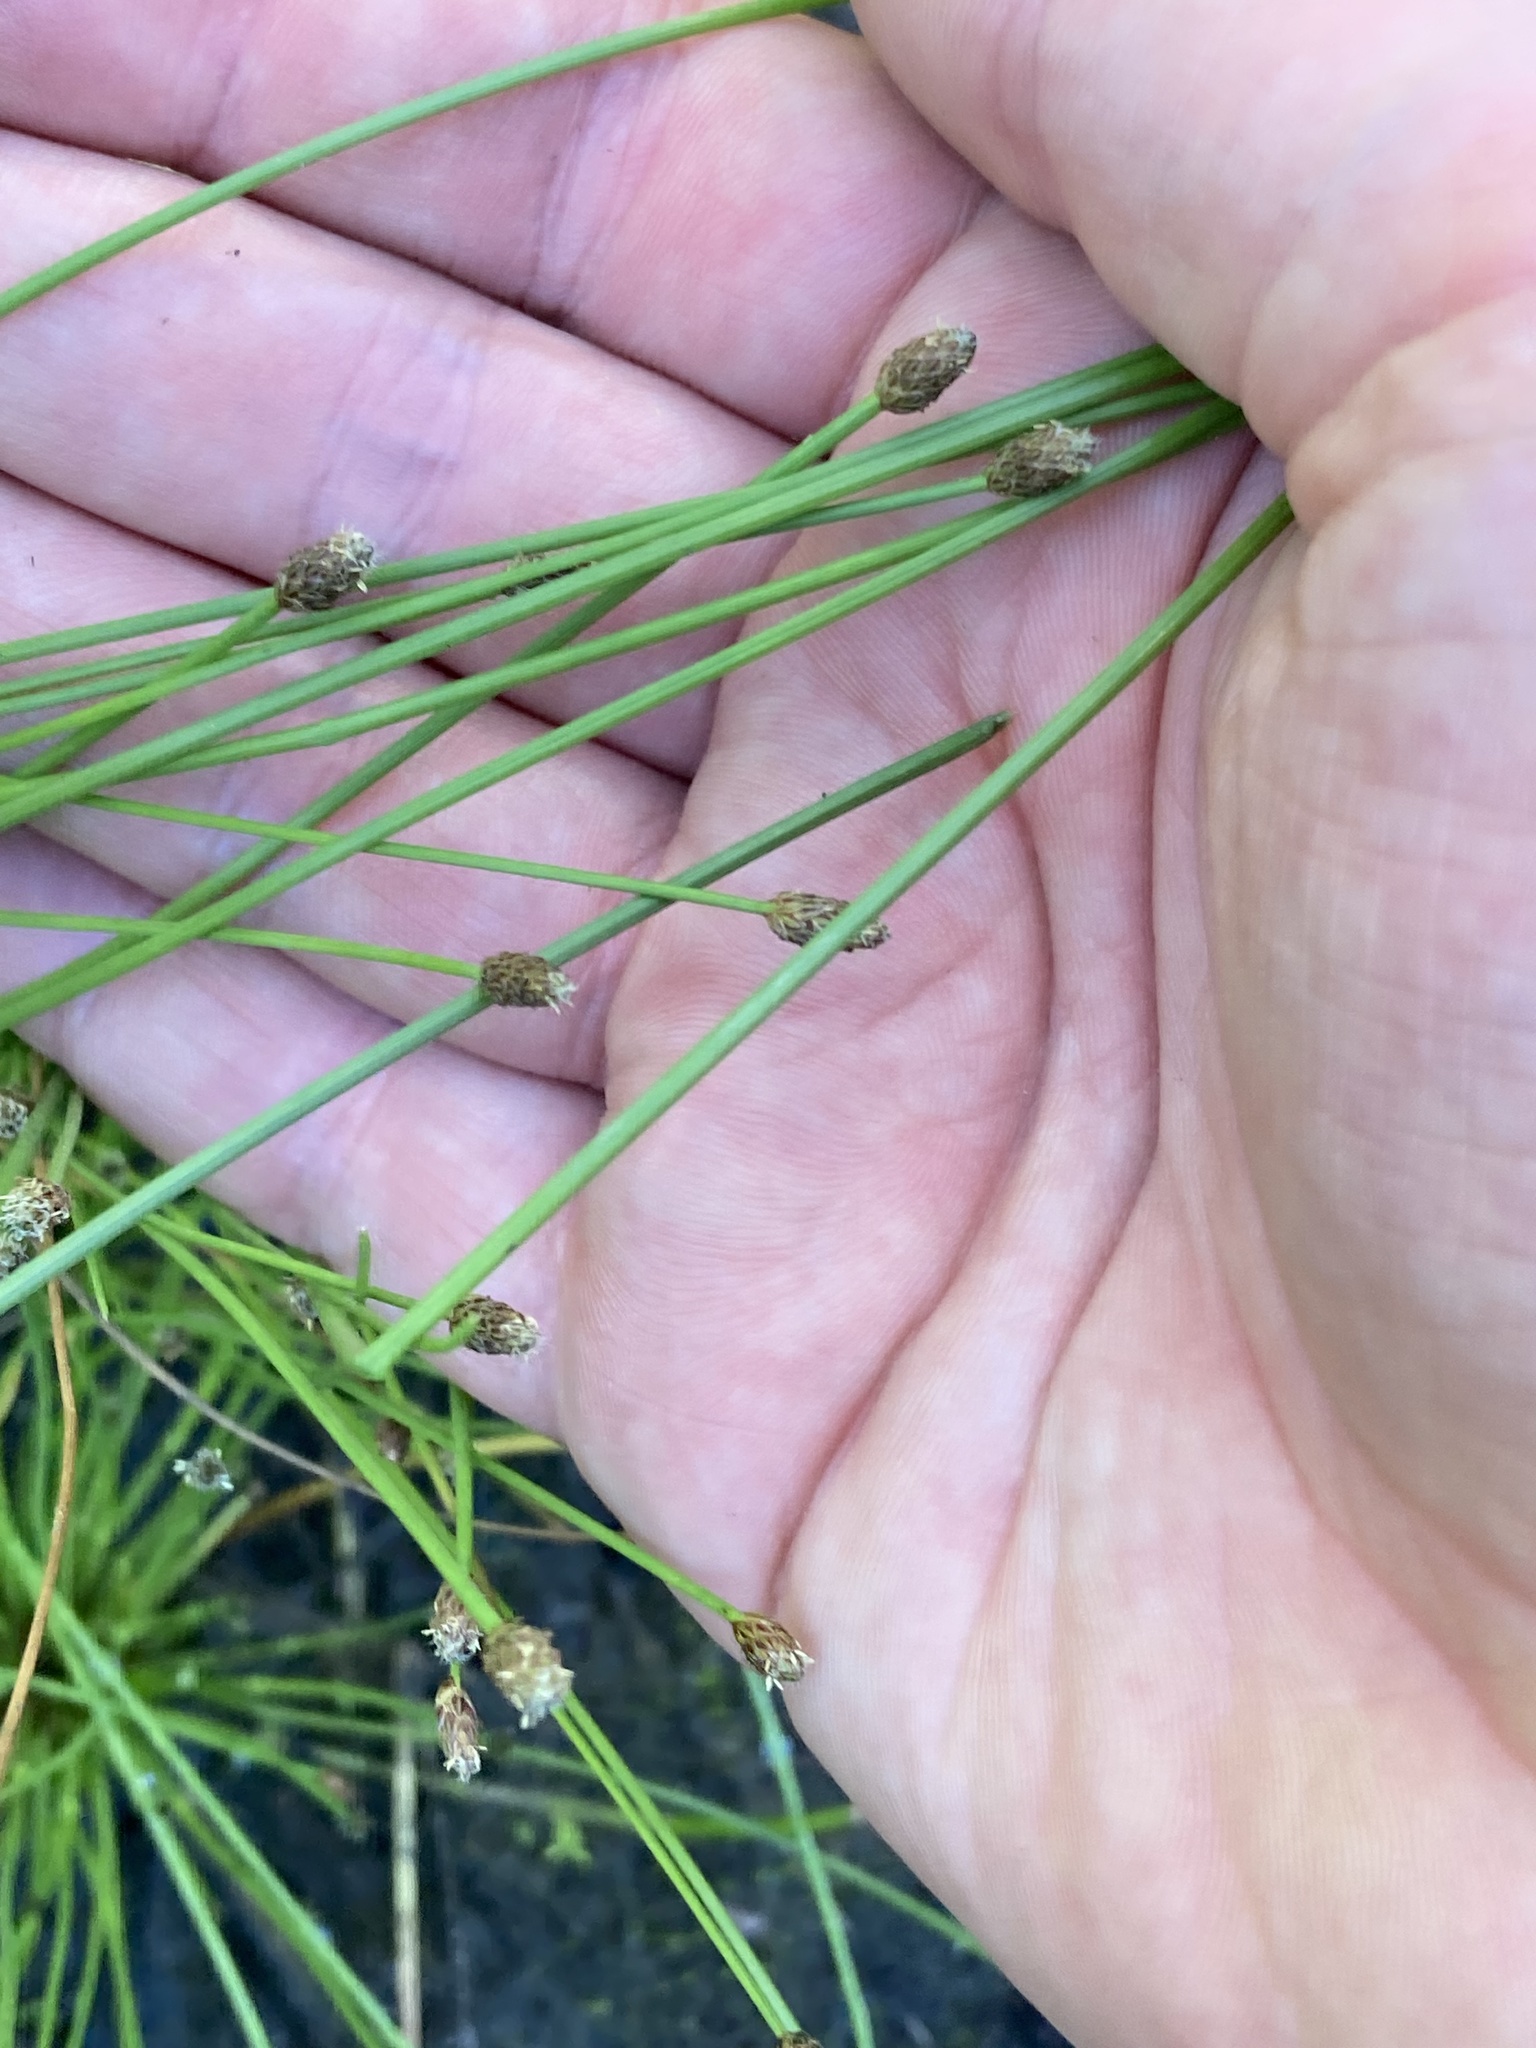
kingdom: Plantae
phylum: Tracheophyta
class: Liliopsida
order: Poales
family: Cyperaceae
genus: Eleocharis
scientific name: Eleocharis obtusa
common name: Blunt spikerush
